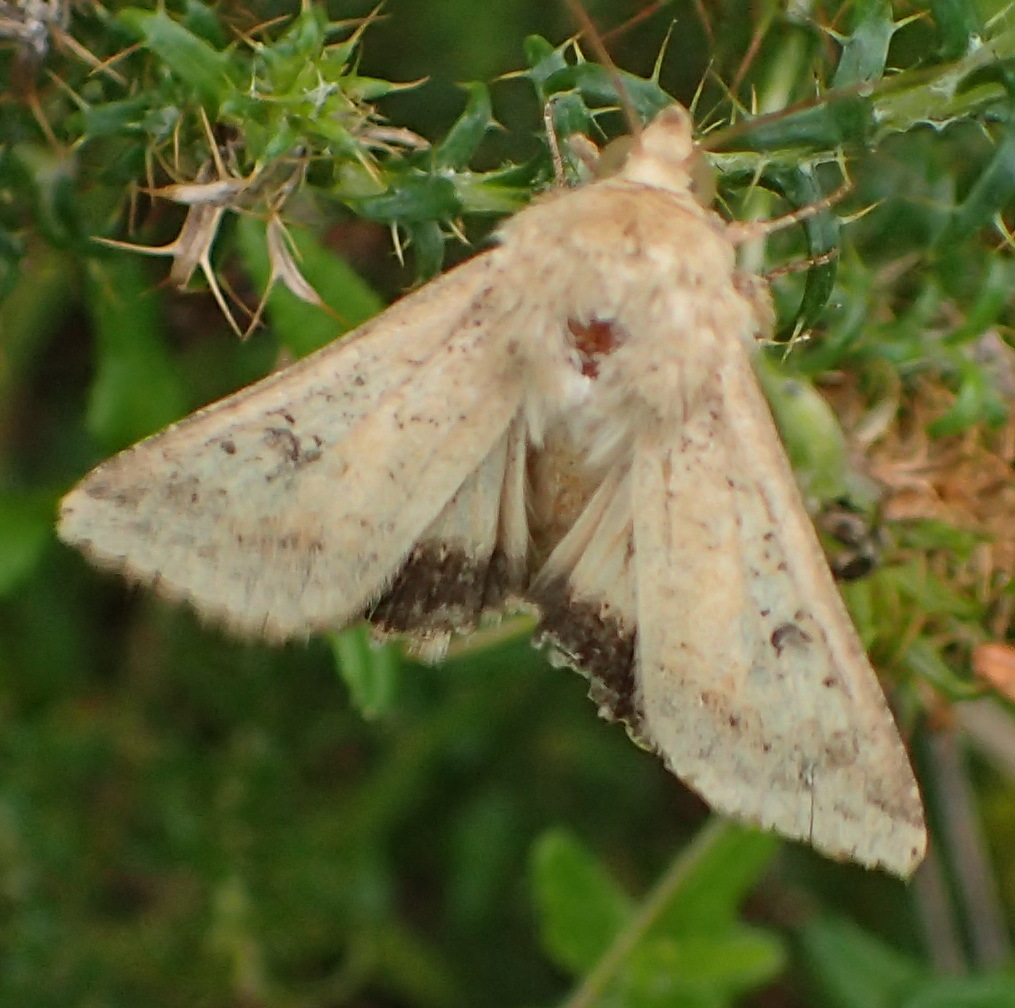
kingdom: Animalia
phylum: Arthropoda
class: Insecta
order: Lepidoptera
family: Noctuidae
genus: Helicoverpa
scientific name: Helicoverpa armigera
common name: Cotton bollworm
